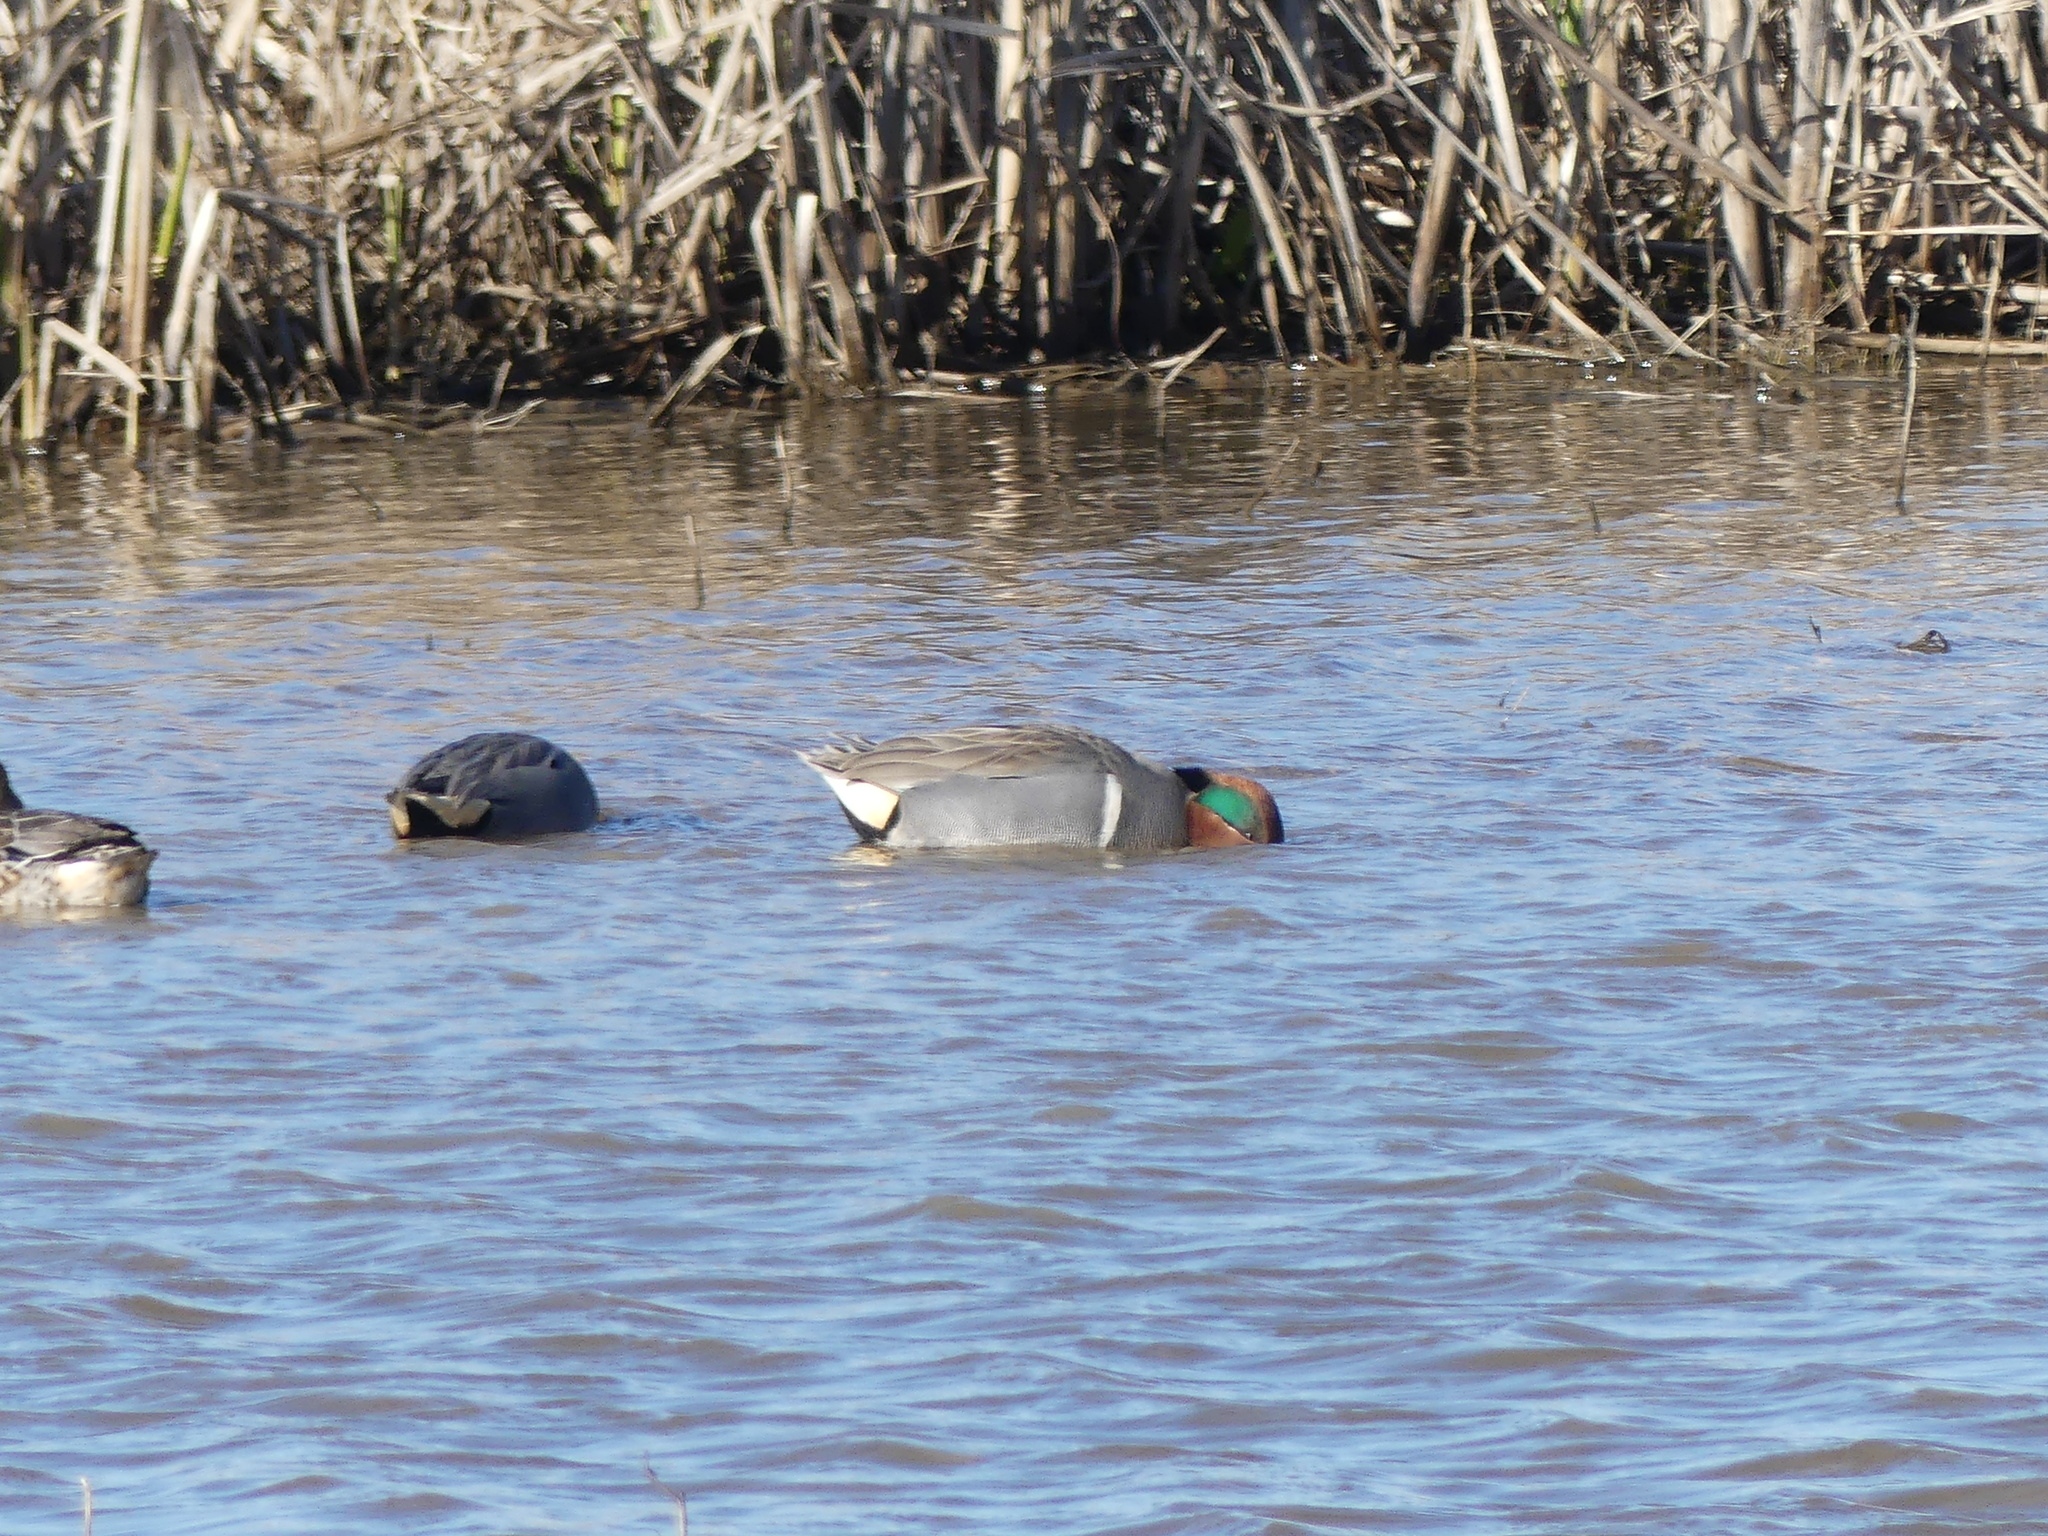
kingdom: Animalia
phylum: Chordata
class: Aves
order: Anseriformes
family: Anatidae
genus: Anas
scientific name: Anas crecca
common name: Eurasian teal
